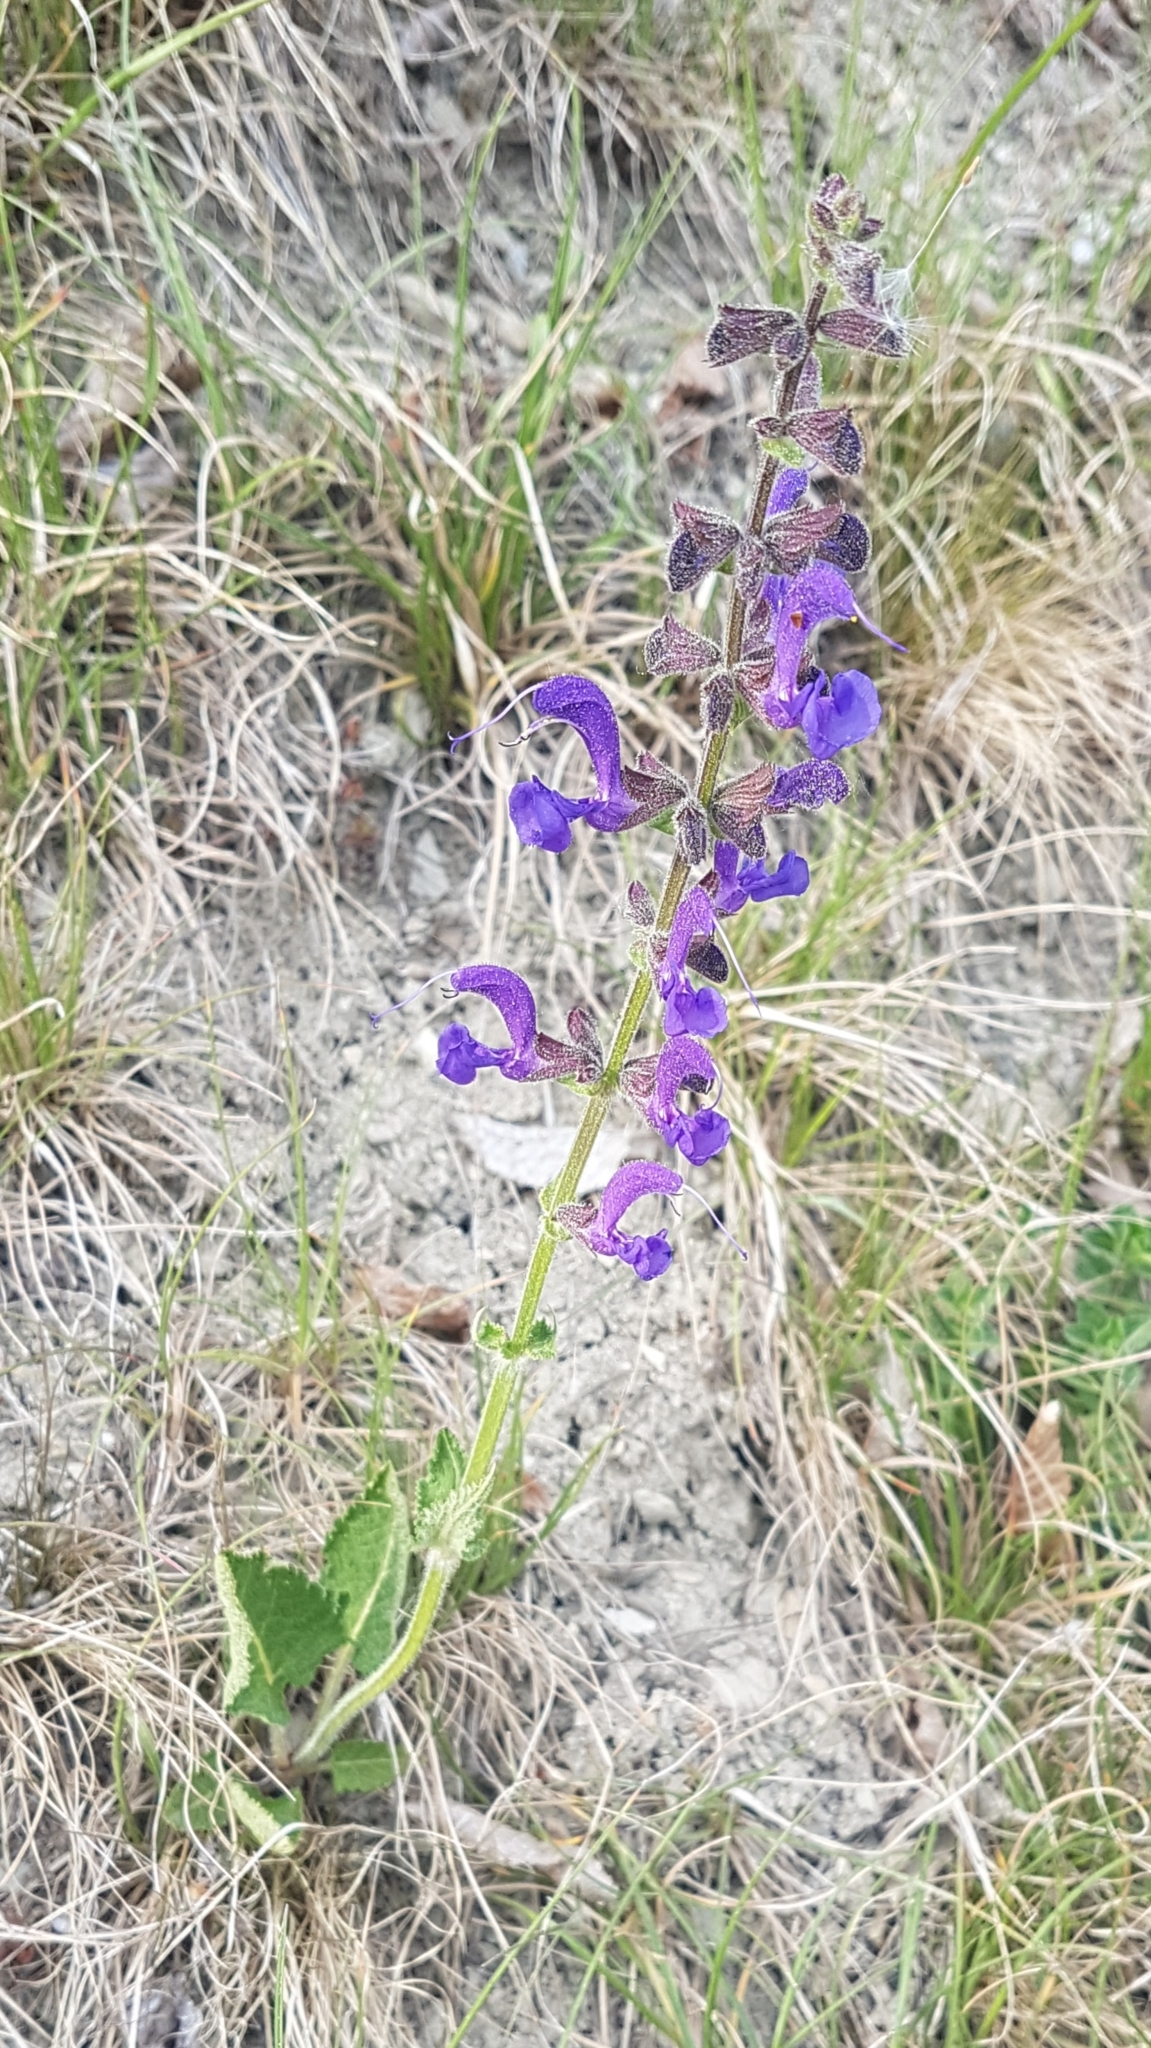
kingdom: Plantae
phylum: Tracheophyta
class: Magnoliopsida
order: Lamiales
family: Lamiaceae
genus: Salvia
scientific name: Salvia pratensis
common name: Meadow sage
